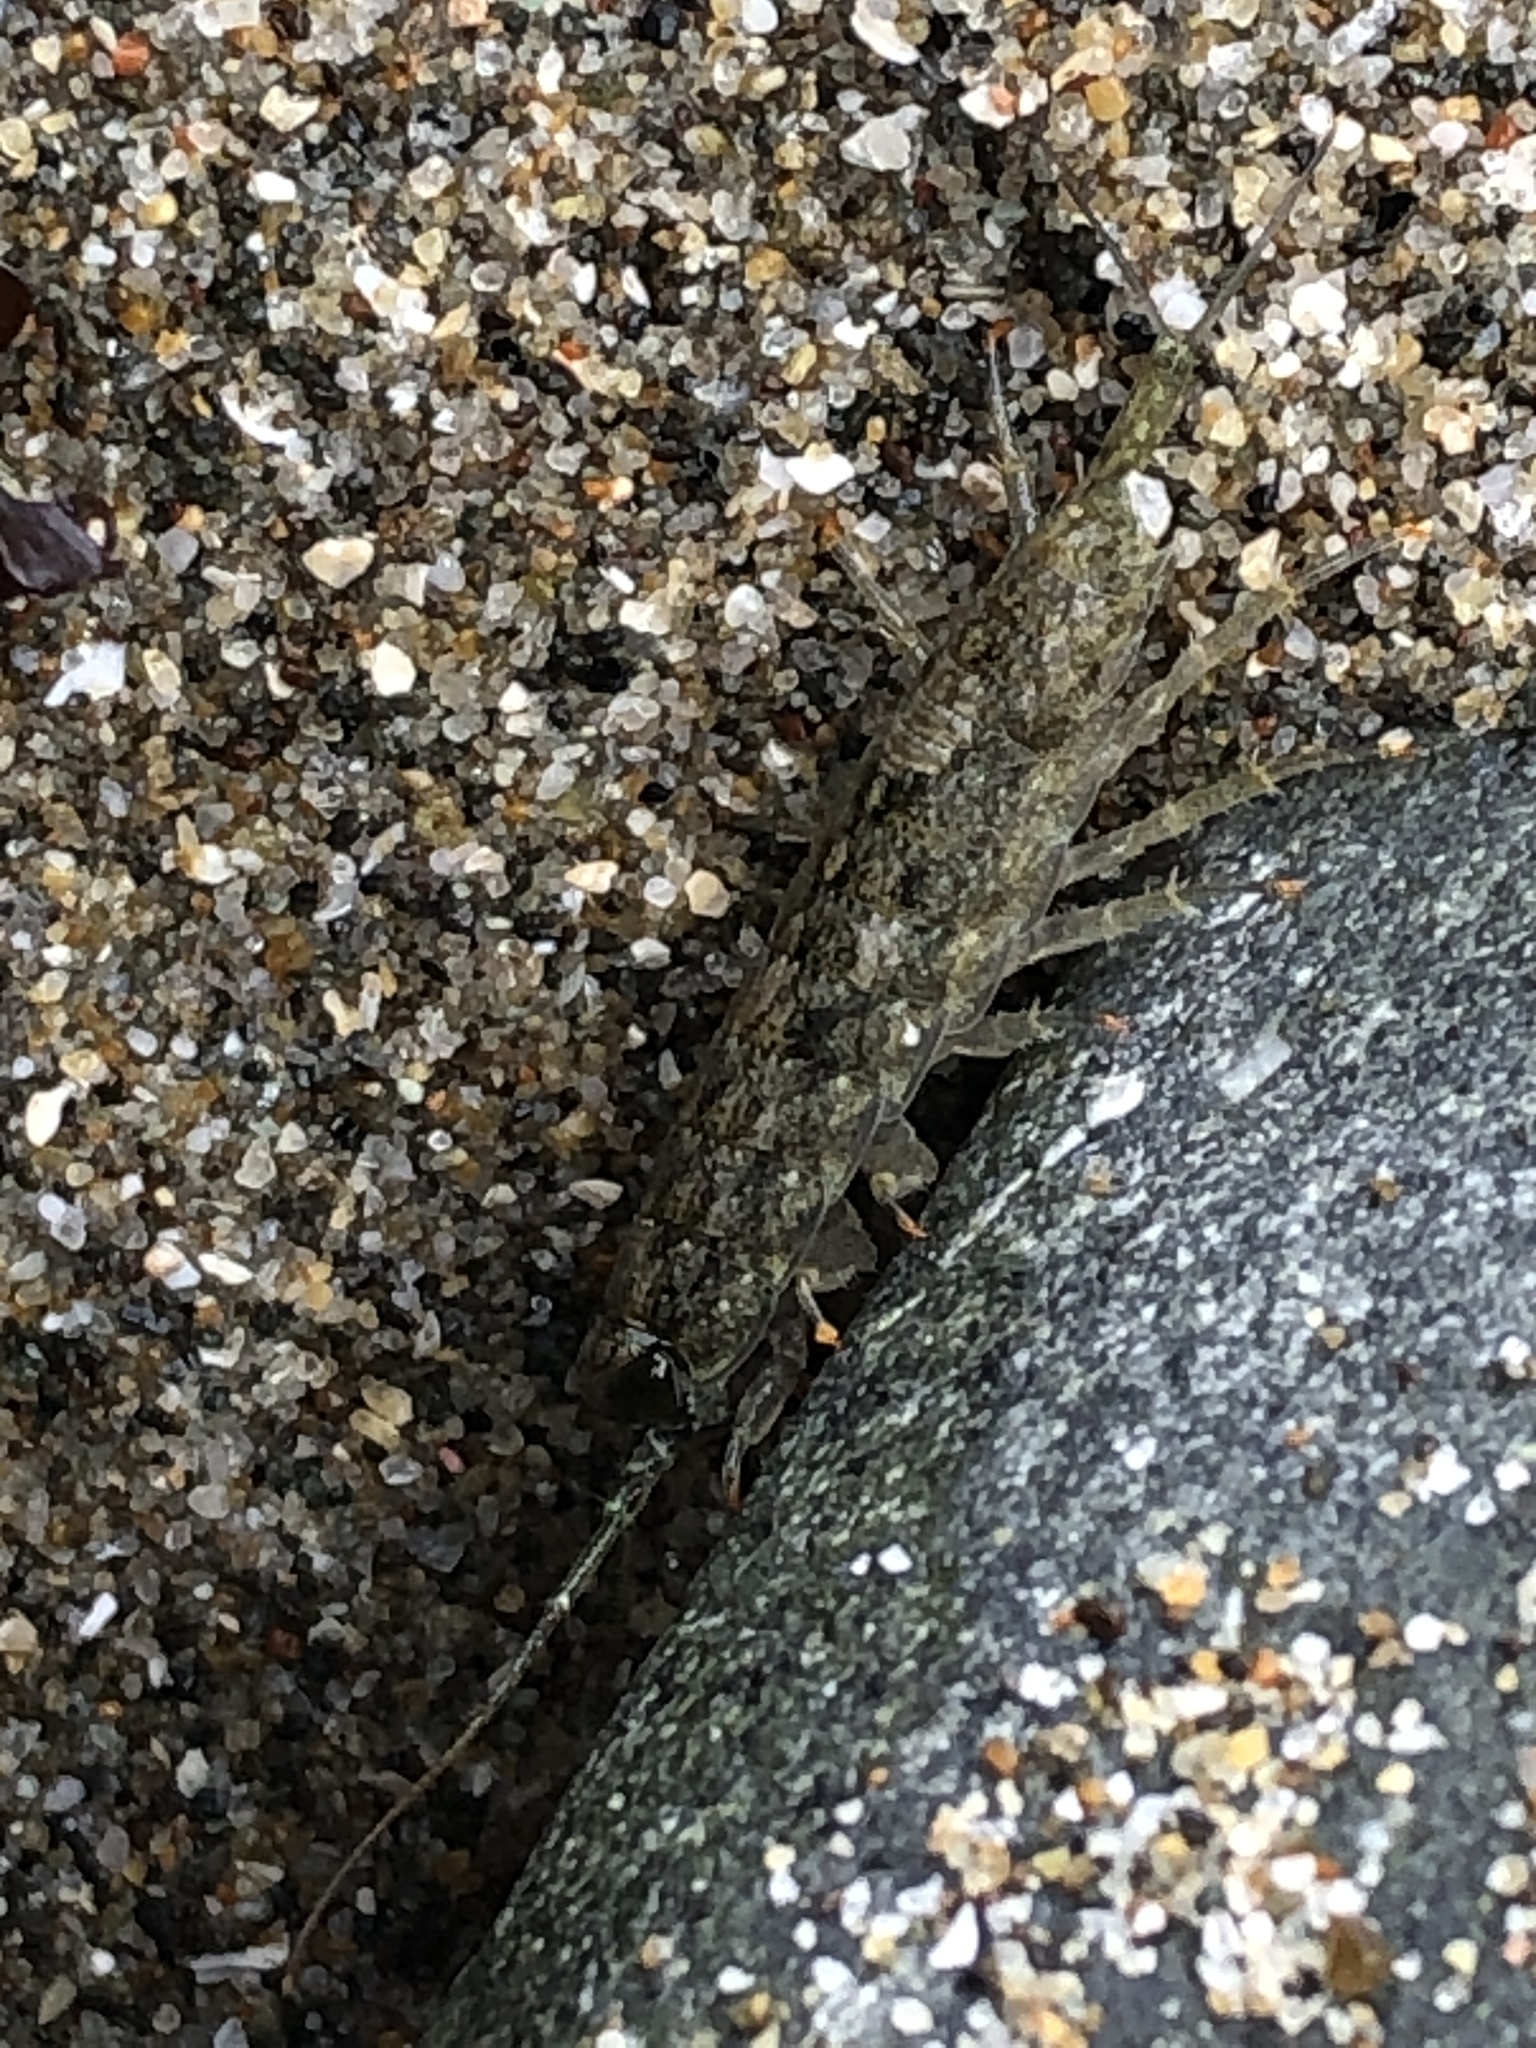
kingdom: Animalia
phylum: Arthropoda
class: Malacostraca
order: Isopoda
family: Ligiidae
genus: Ligia
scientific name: Ligia occidentalis
